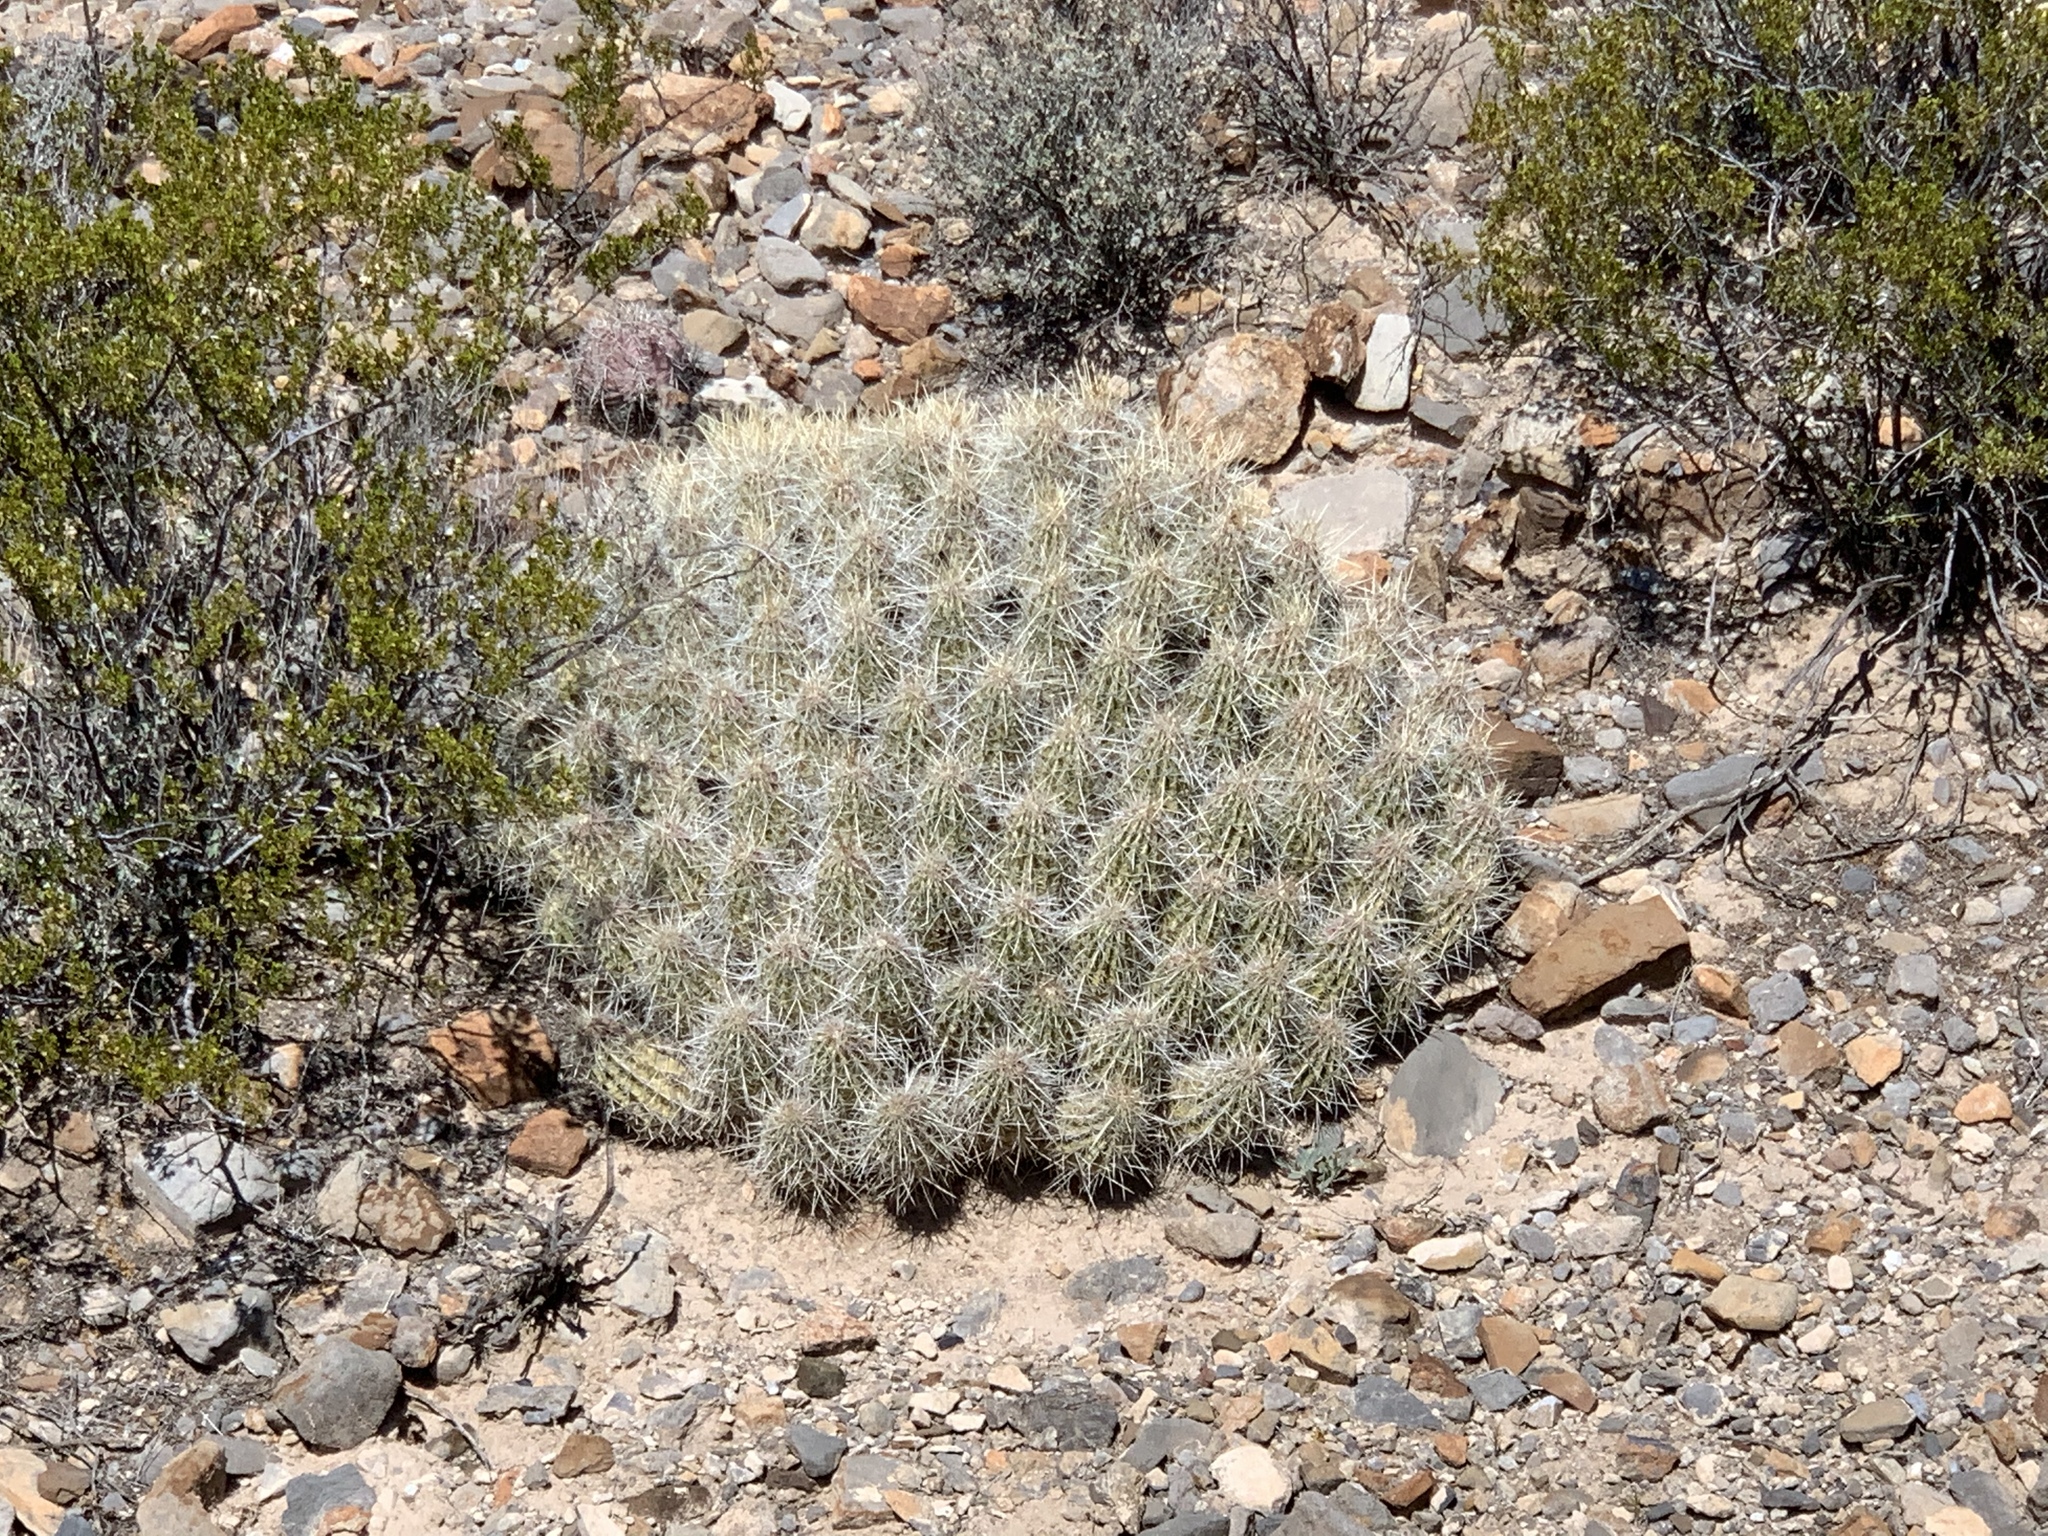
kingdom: Plantae
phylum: Tracheophyta
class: Magnoliopsida
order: Caryophyllales
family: Cactaceae
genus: Echinocereus
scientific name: Echinocereus stramineus
